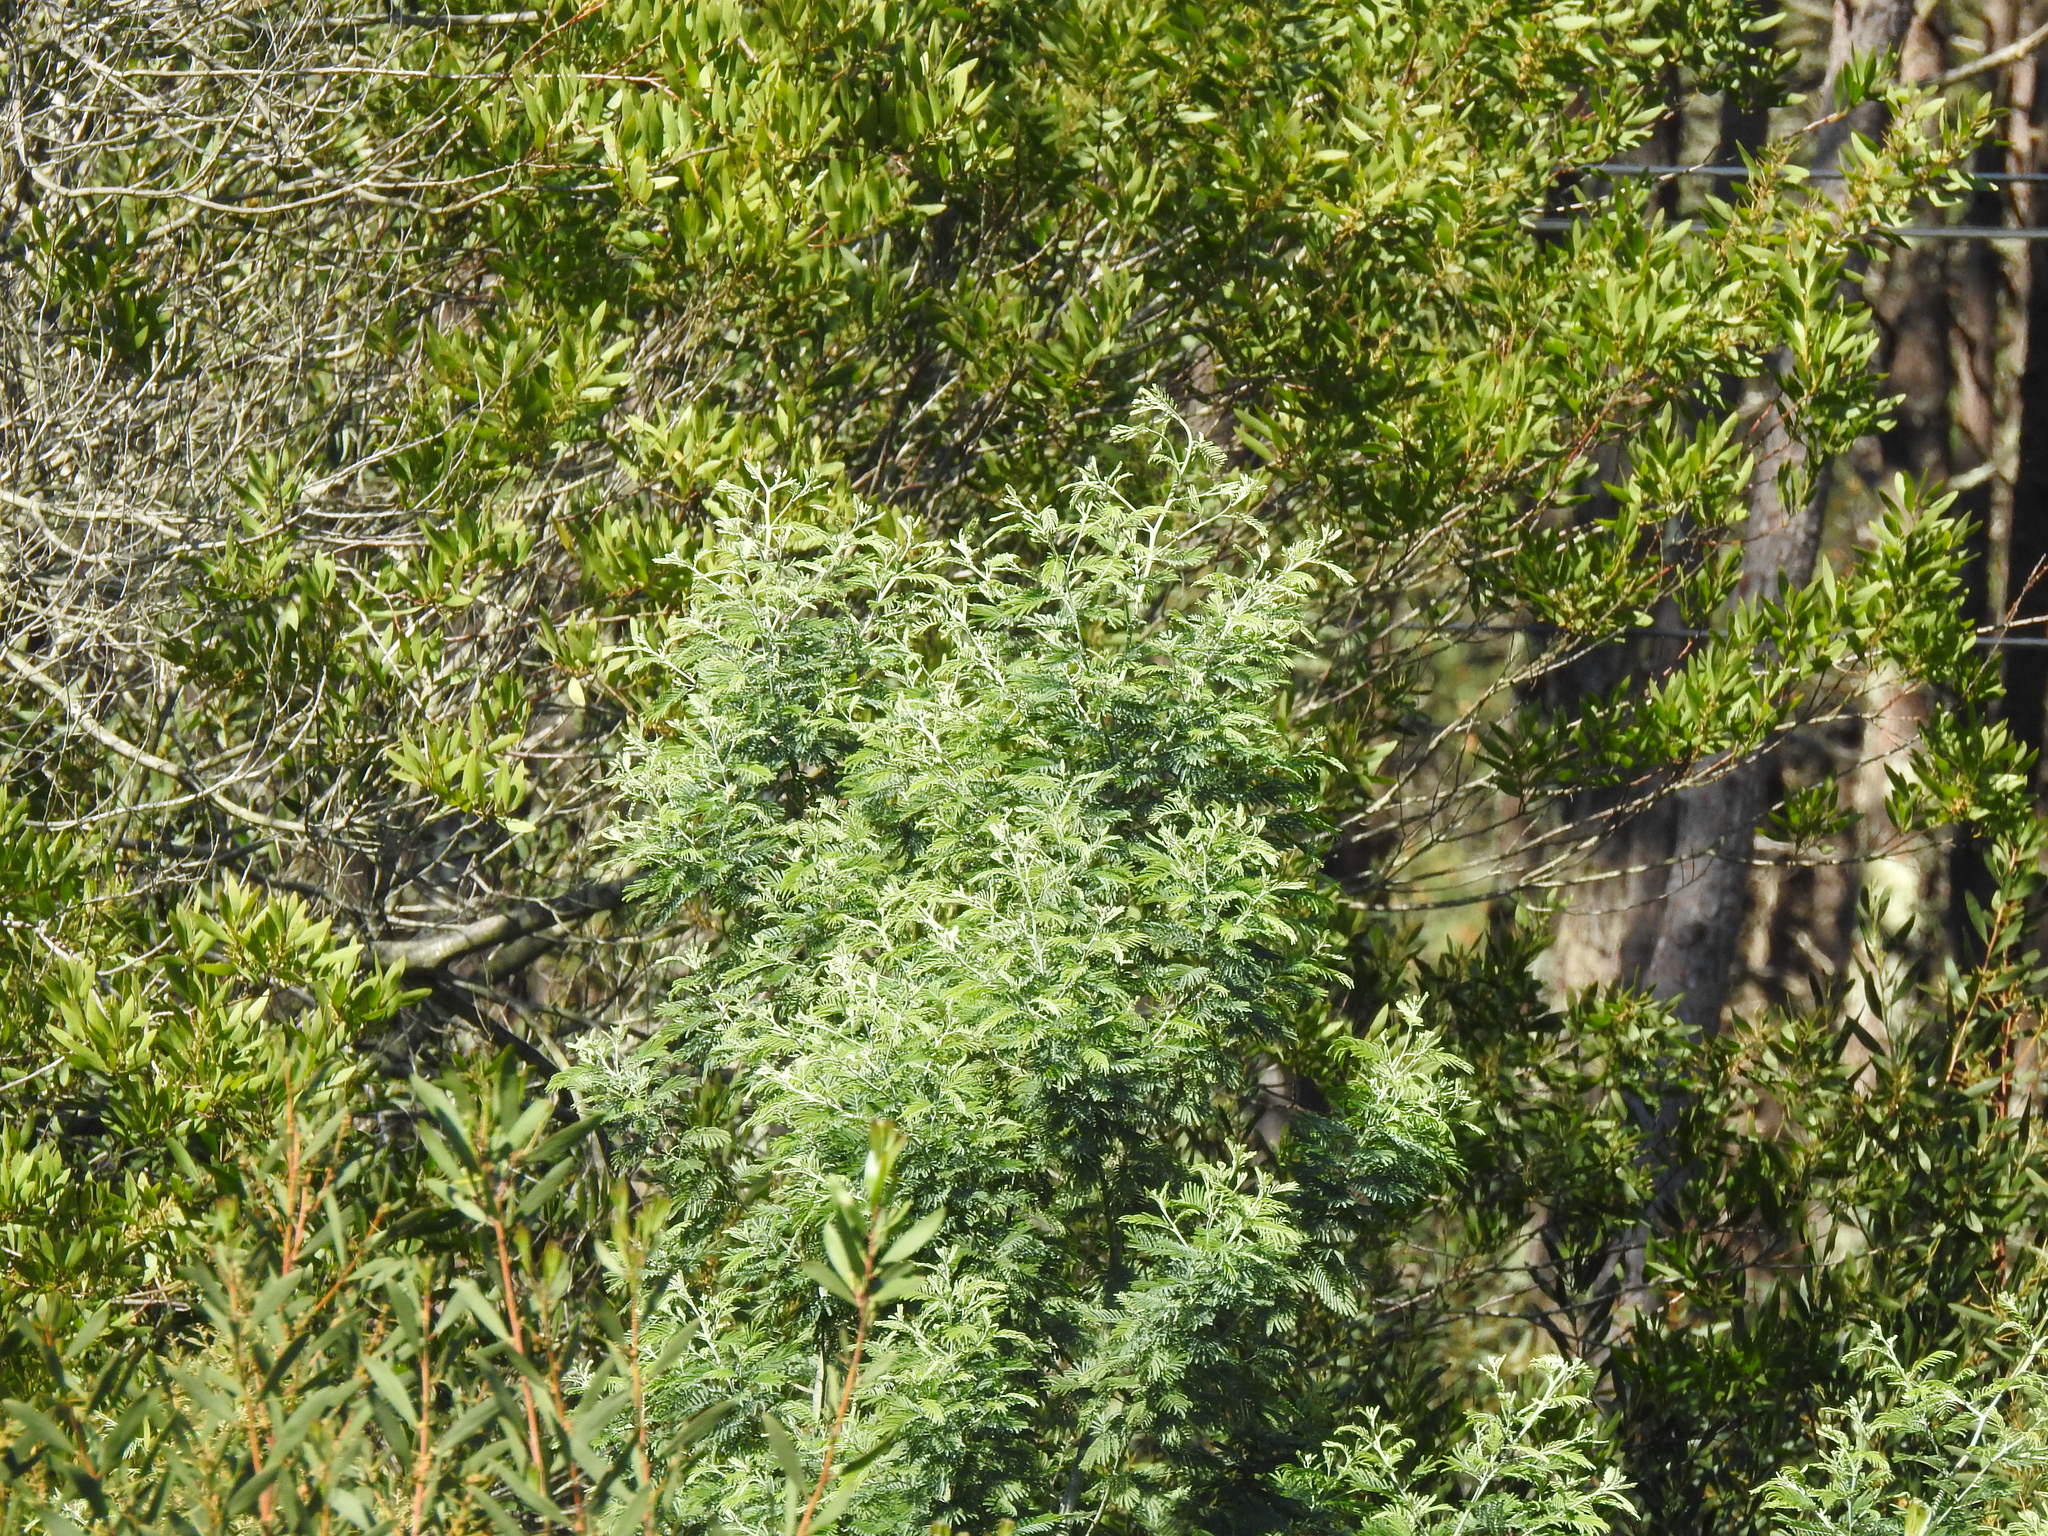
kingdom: Plantae
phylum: Tracheophyta
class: Magnoliopsida
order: Fabales
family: Fabaceae
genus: Acacia
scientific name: Acacia dealbata
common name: Silver wattle
